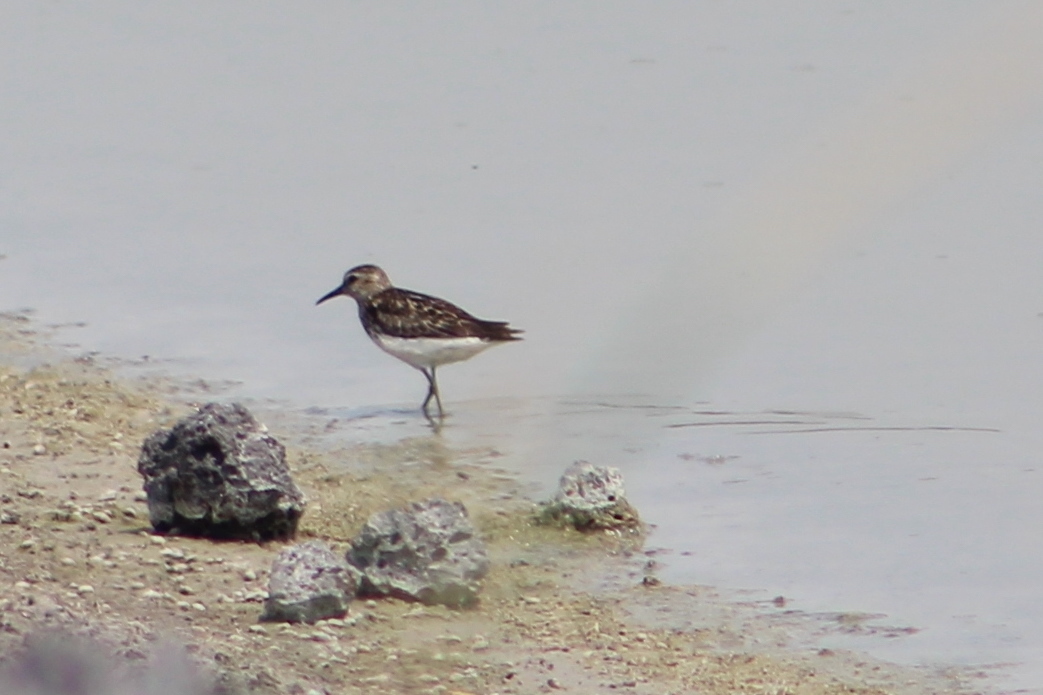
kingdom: Animalia
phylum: Chordata
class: Aves
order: Charadriiformes
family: Scolopacidae
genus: Calidris
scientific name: Calidris minutilla
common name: Least sandpiper
